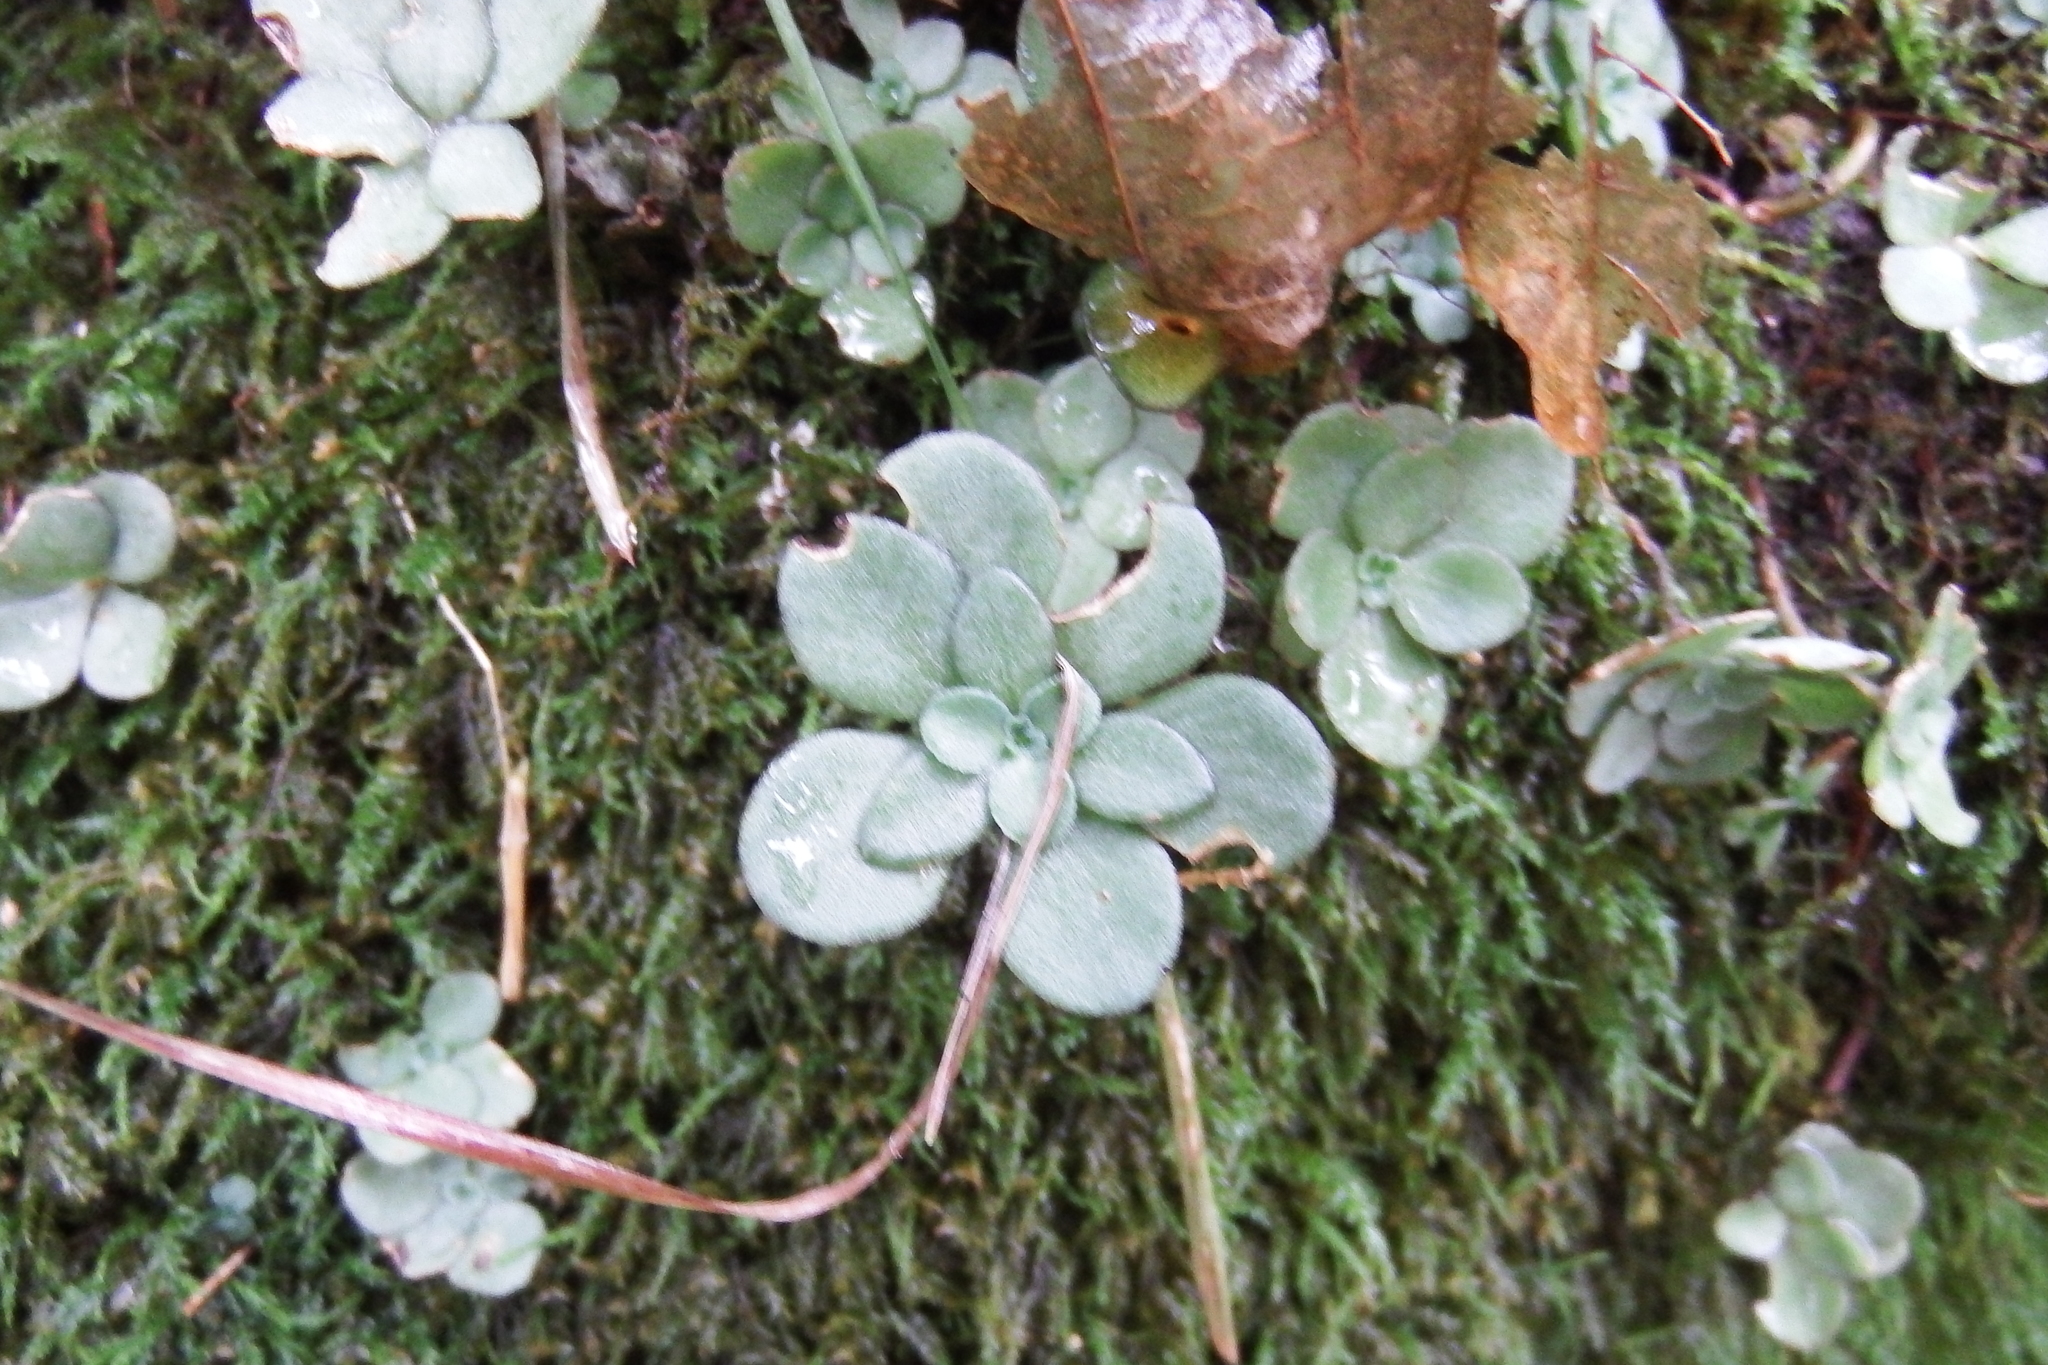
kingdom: Plantae
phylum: Tracheophyta
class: Magnoliopsida
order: Saxifragales
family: Crassulaceae
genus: Sedum
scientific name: Sedum ternatum
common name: Wild stonecrop
